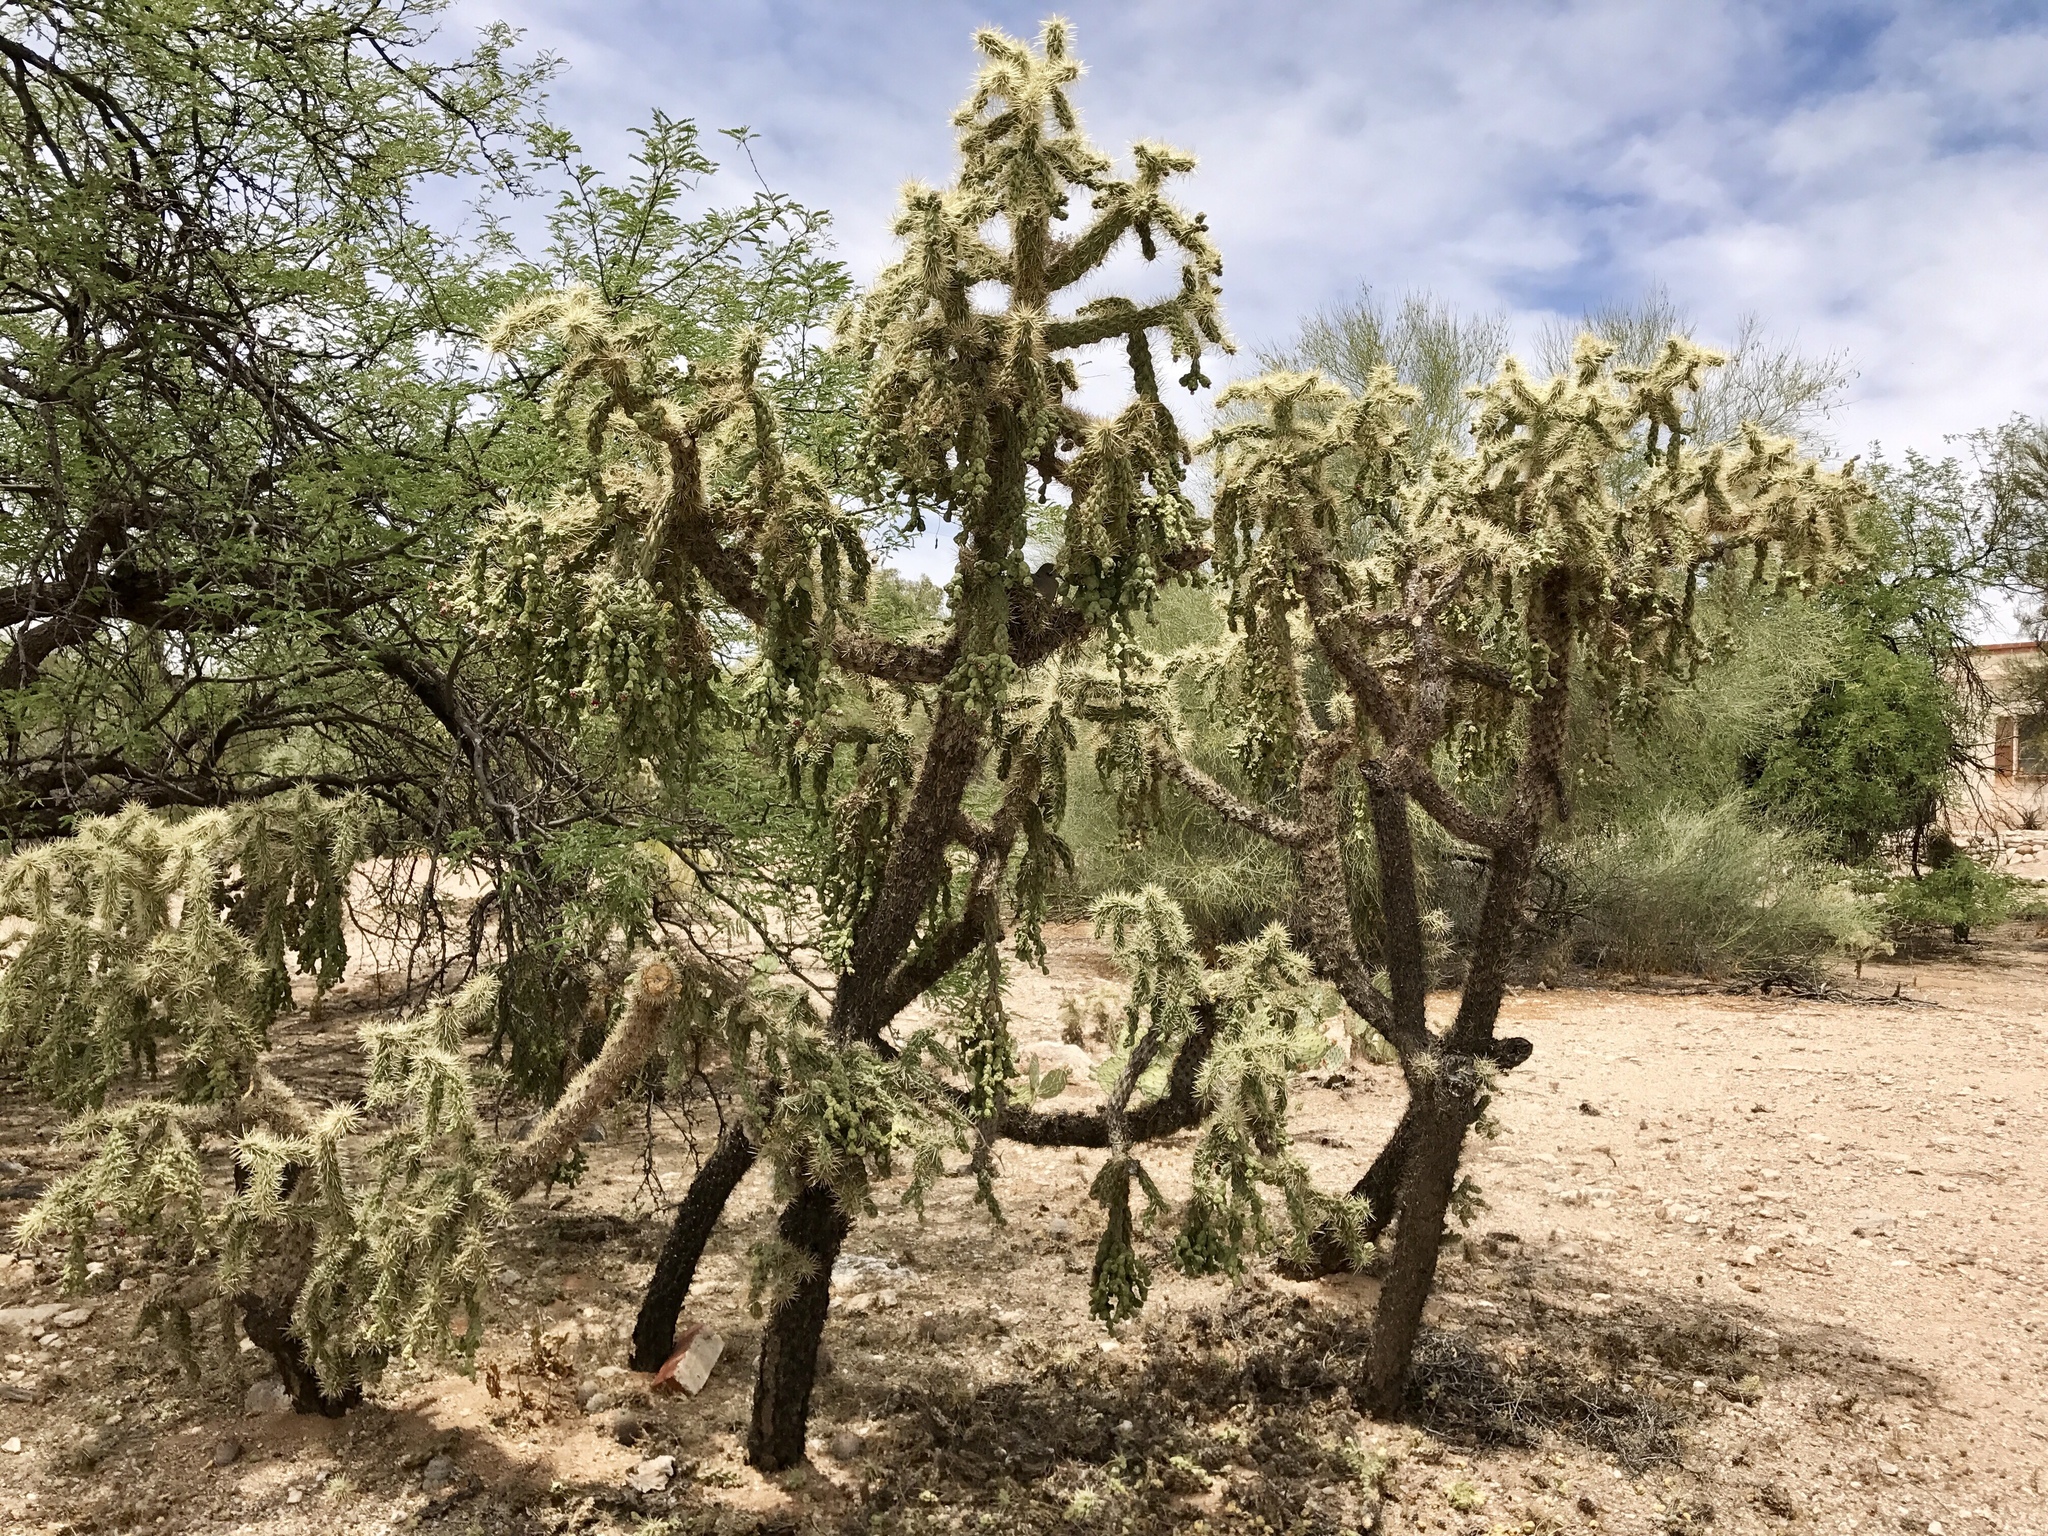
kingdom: Plantae
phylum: Tracheophyta
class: Magnoliopsida
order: Caryophyllales
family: Cactaceae
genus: Cylindropuntia
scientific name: Cylindropuntia fulgida
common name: Jumping cholla
